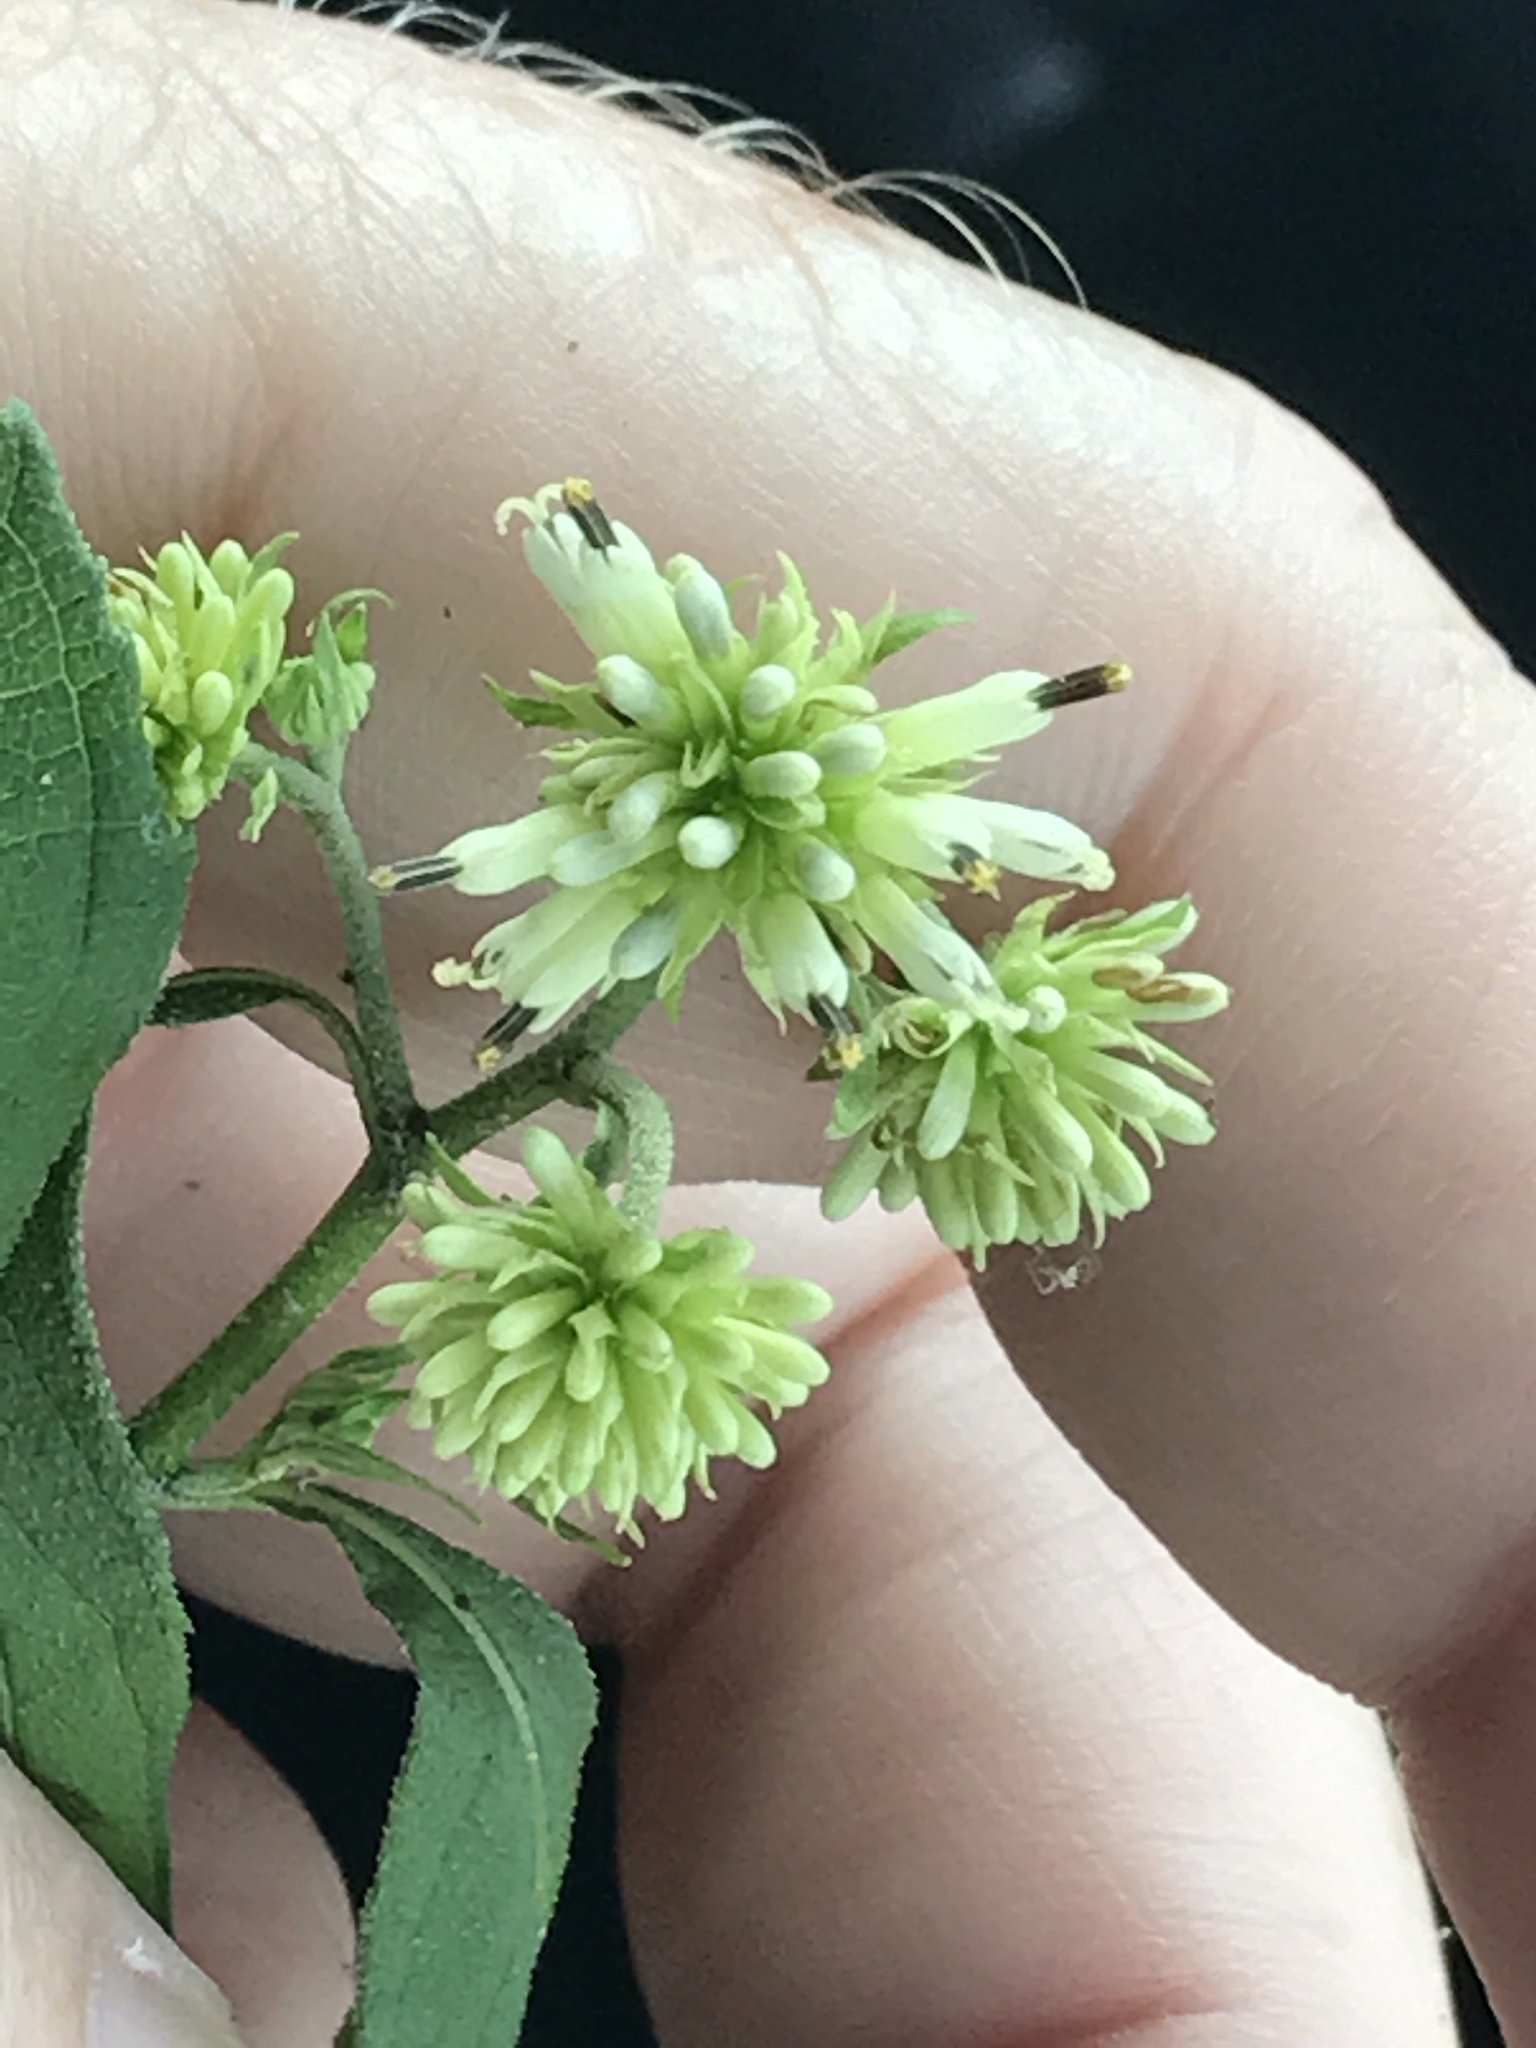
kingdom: Plantae
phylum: Tracheophyta
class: Magnoliopsida
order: Asterales
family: Asteraceae
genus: Verbesina
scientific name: Verbesina walteri
